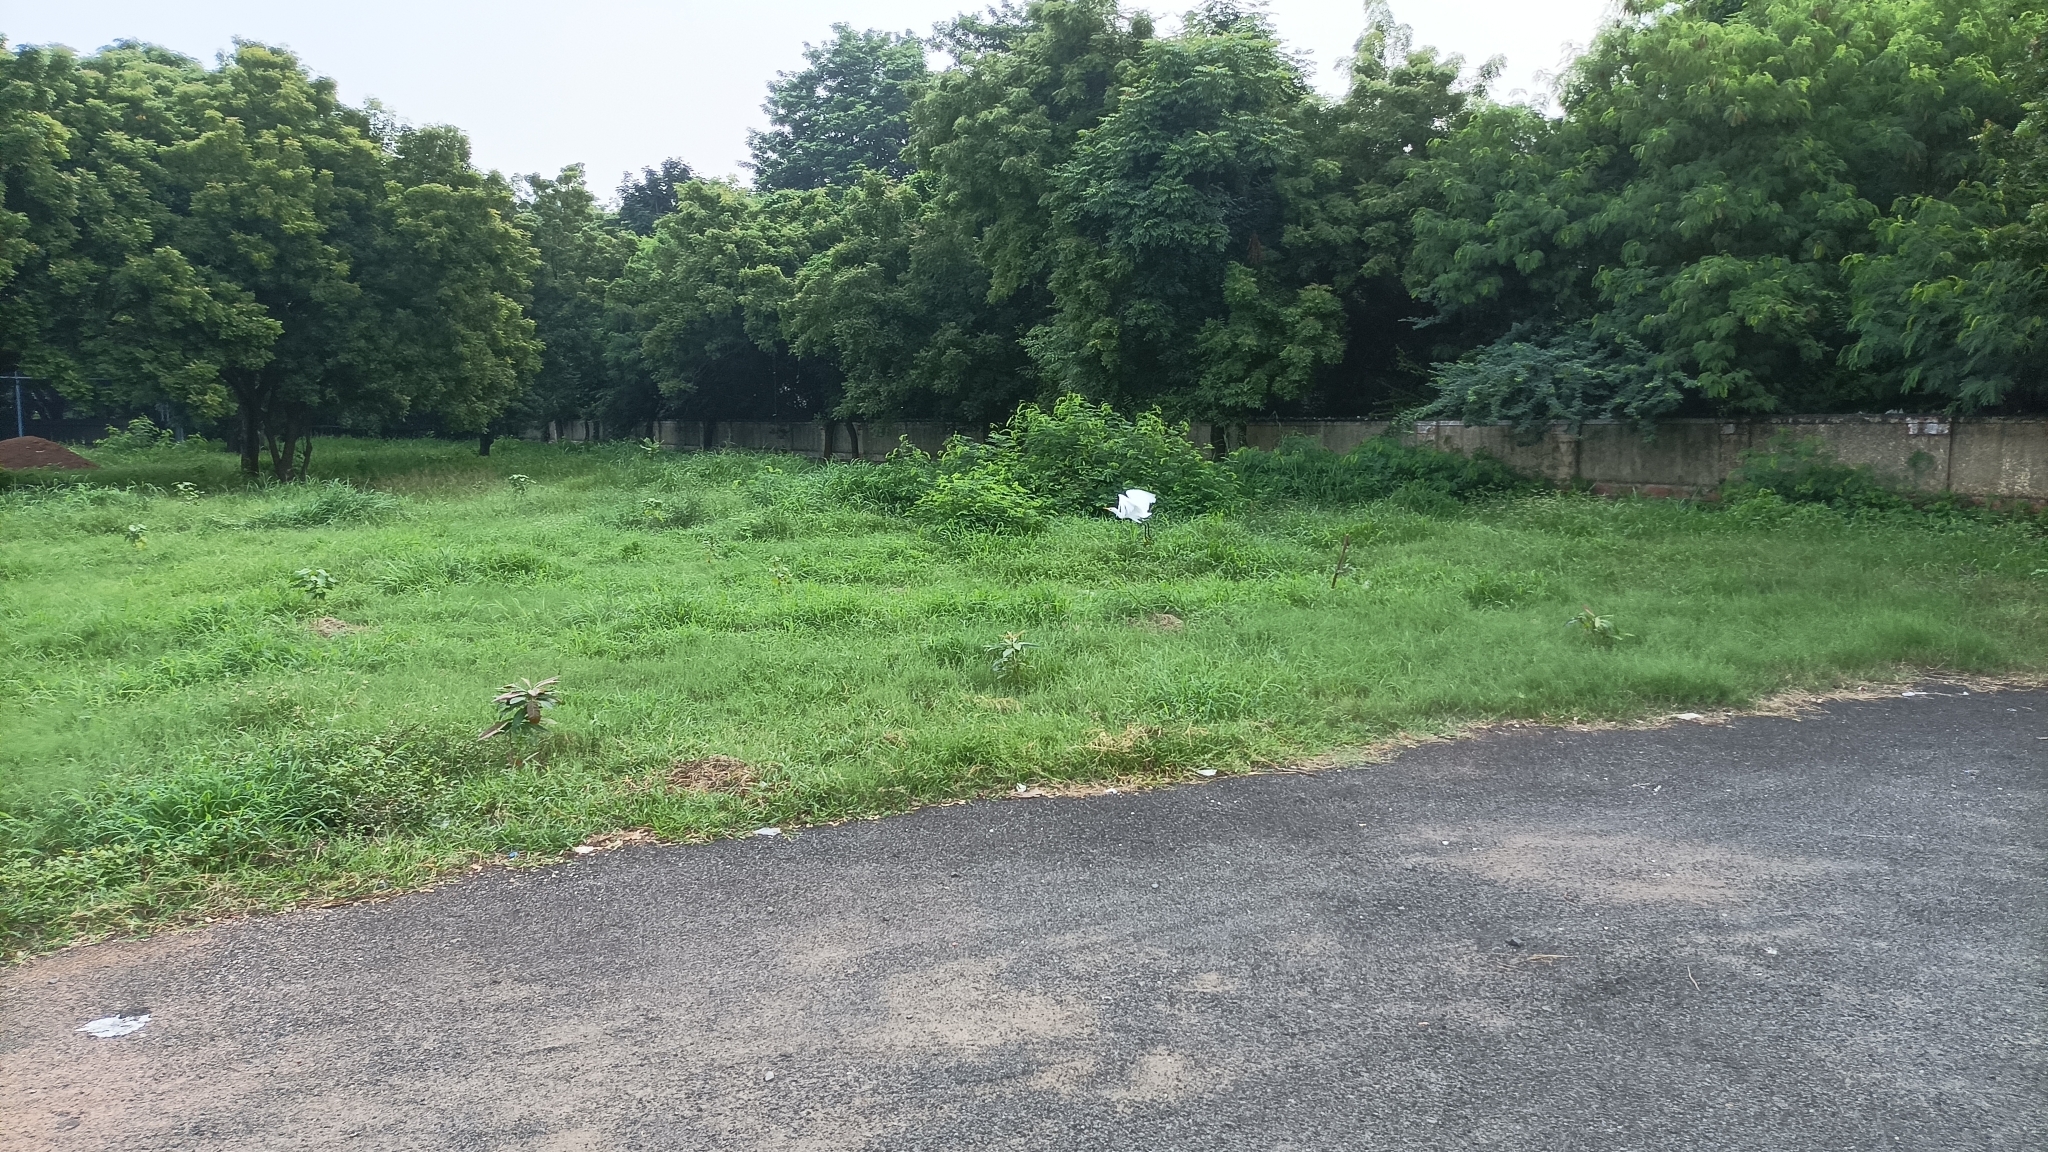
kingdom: Animalia
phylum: Chordata
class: Aves
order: Pelecaniformes
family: Ardeidae
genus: Bubulcus
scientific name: Bubulcus coromandus
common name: Eastern cattle egret
